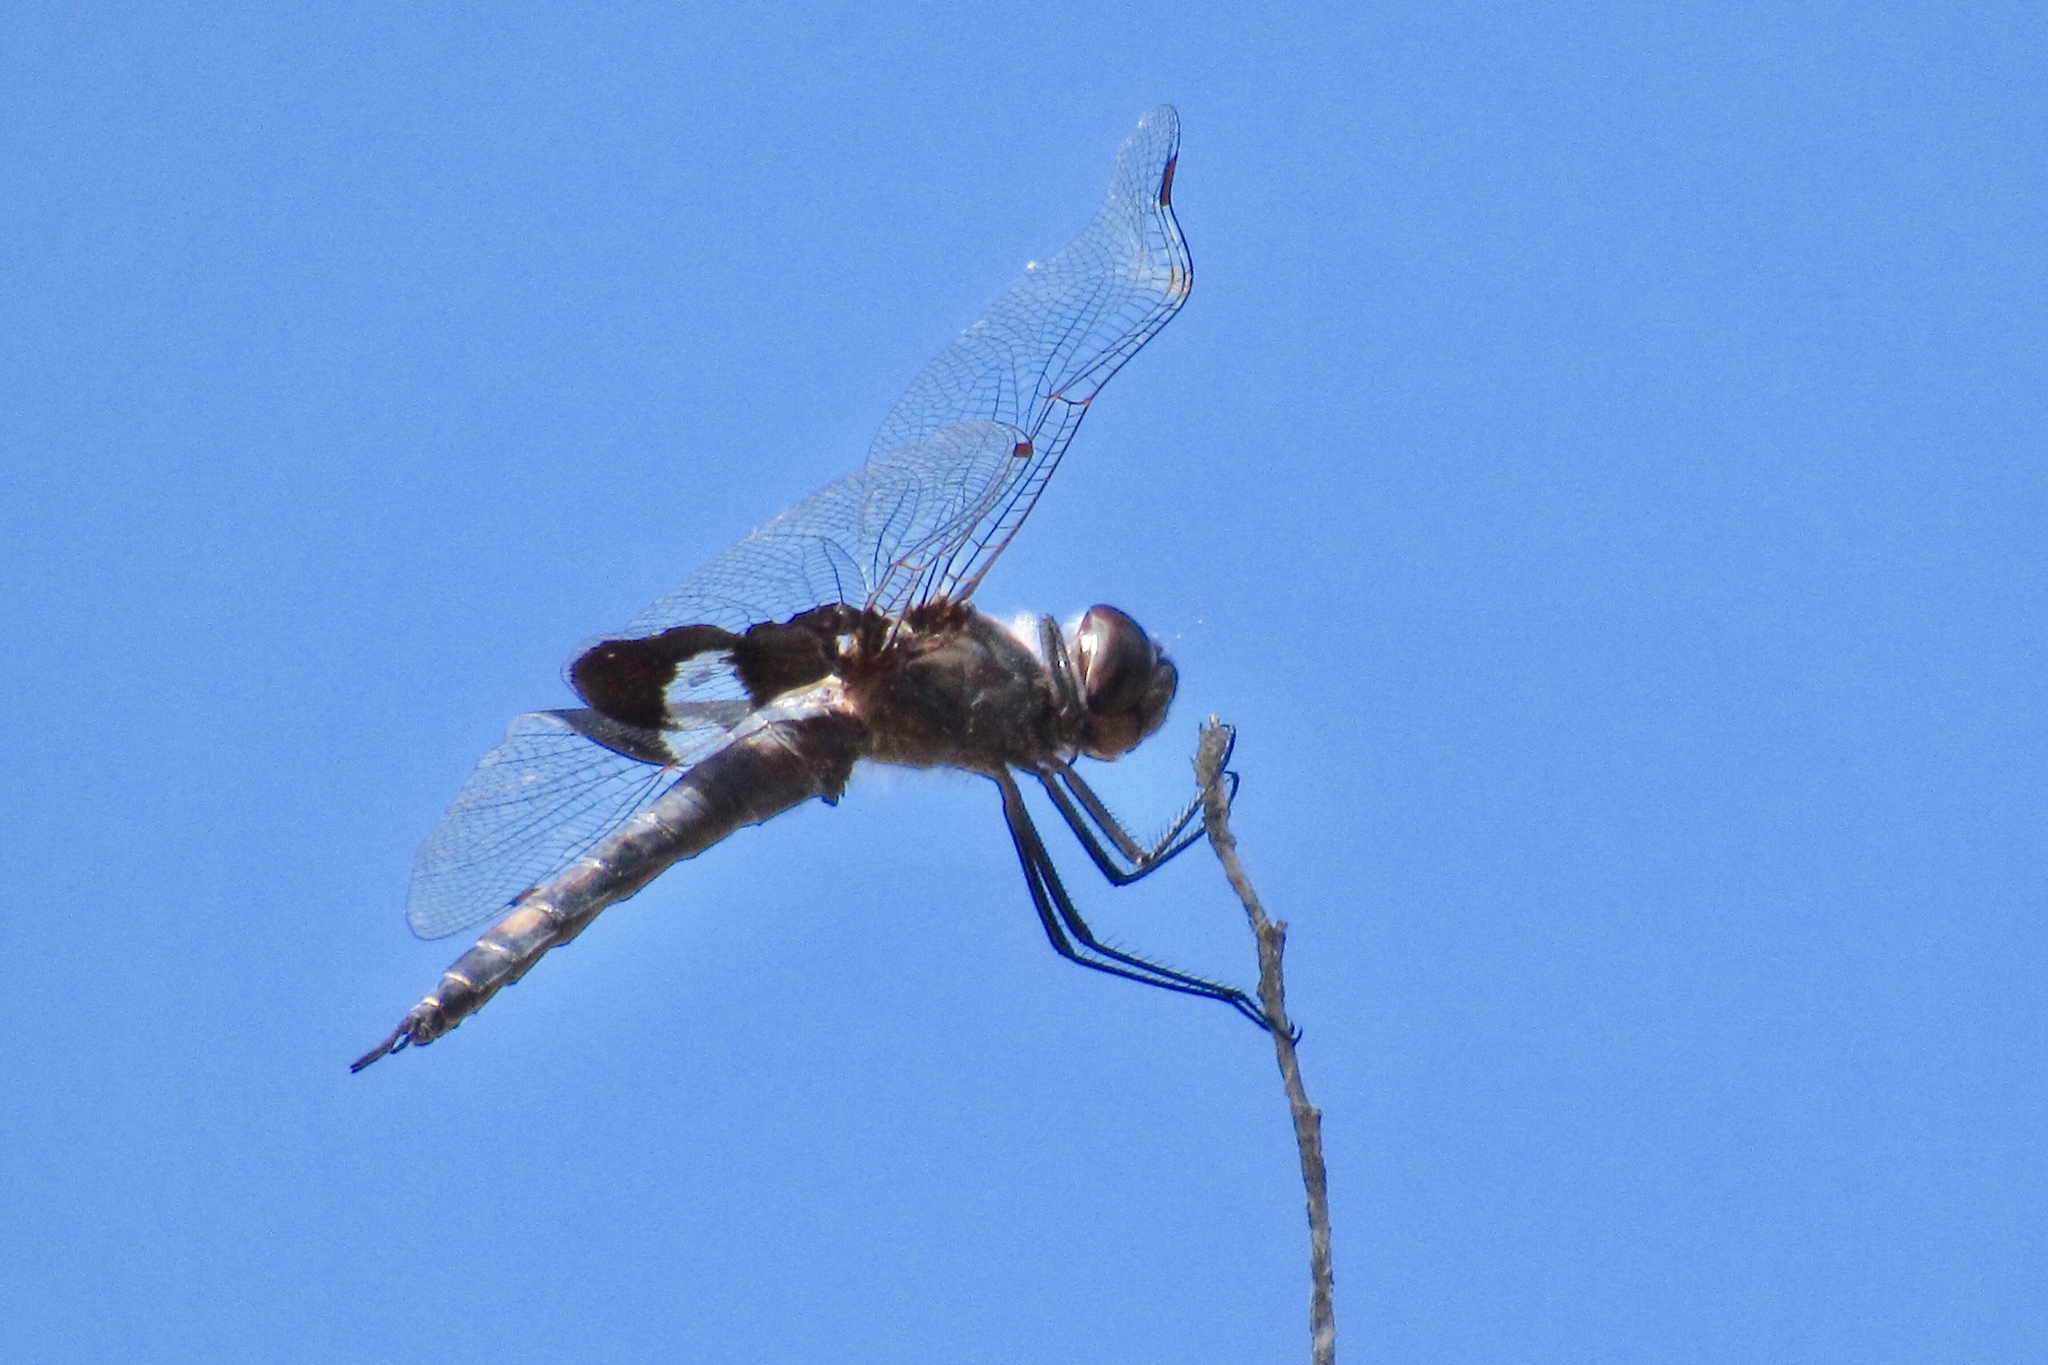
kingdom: Animalia
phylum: Arthropoda
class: Insecta
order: Odonata
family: Libellulidae
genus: Tramea
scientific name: Tramea lacerata
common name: Black saddlebags
